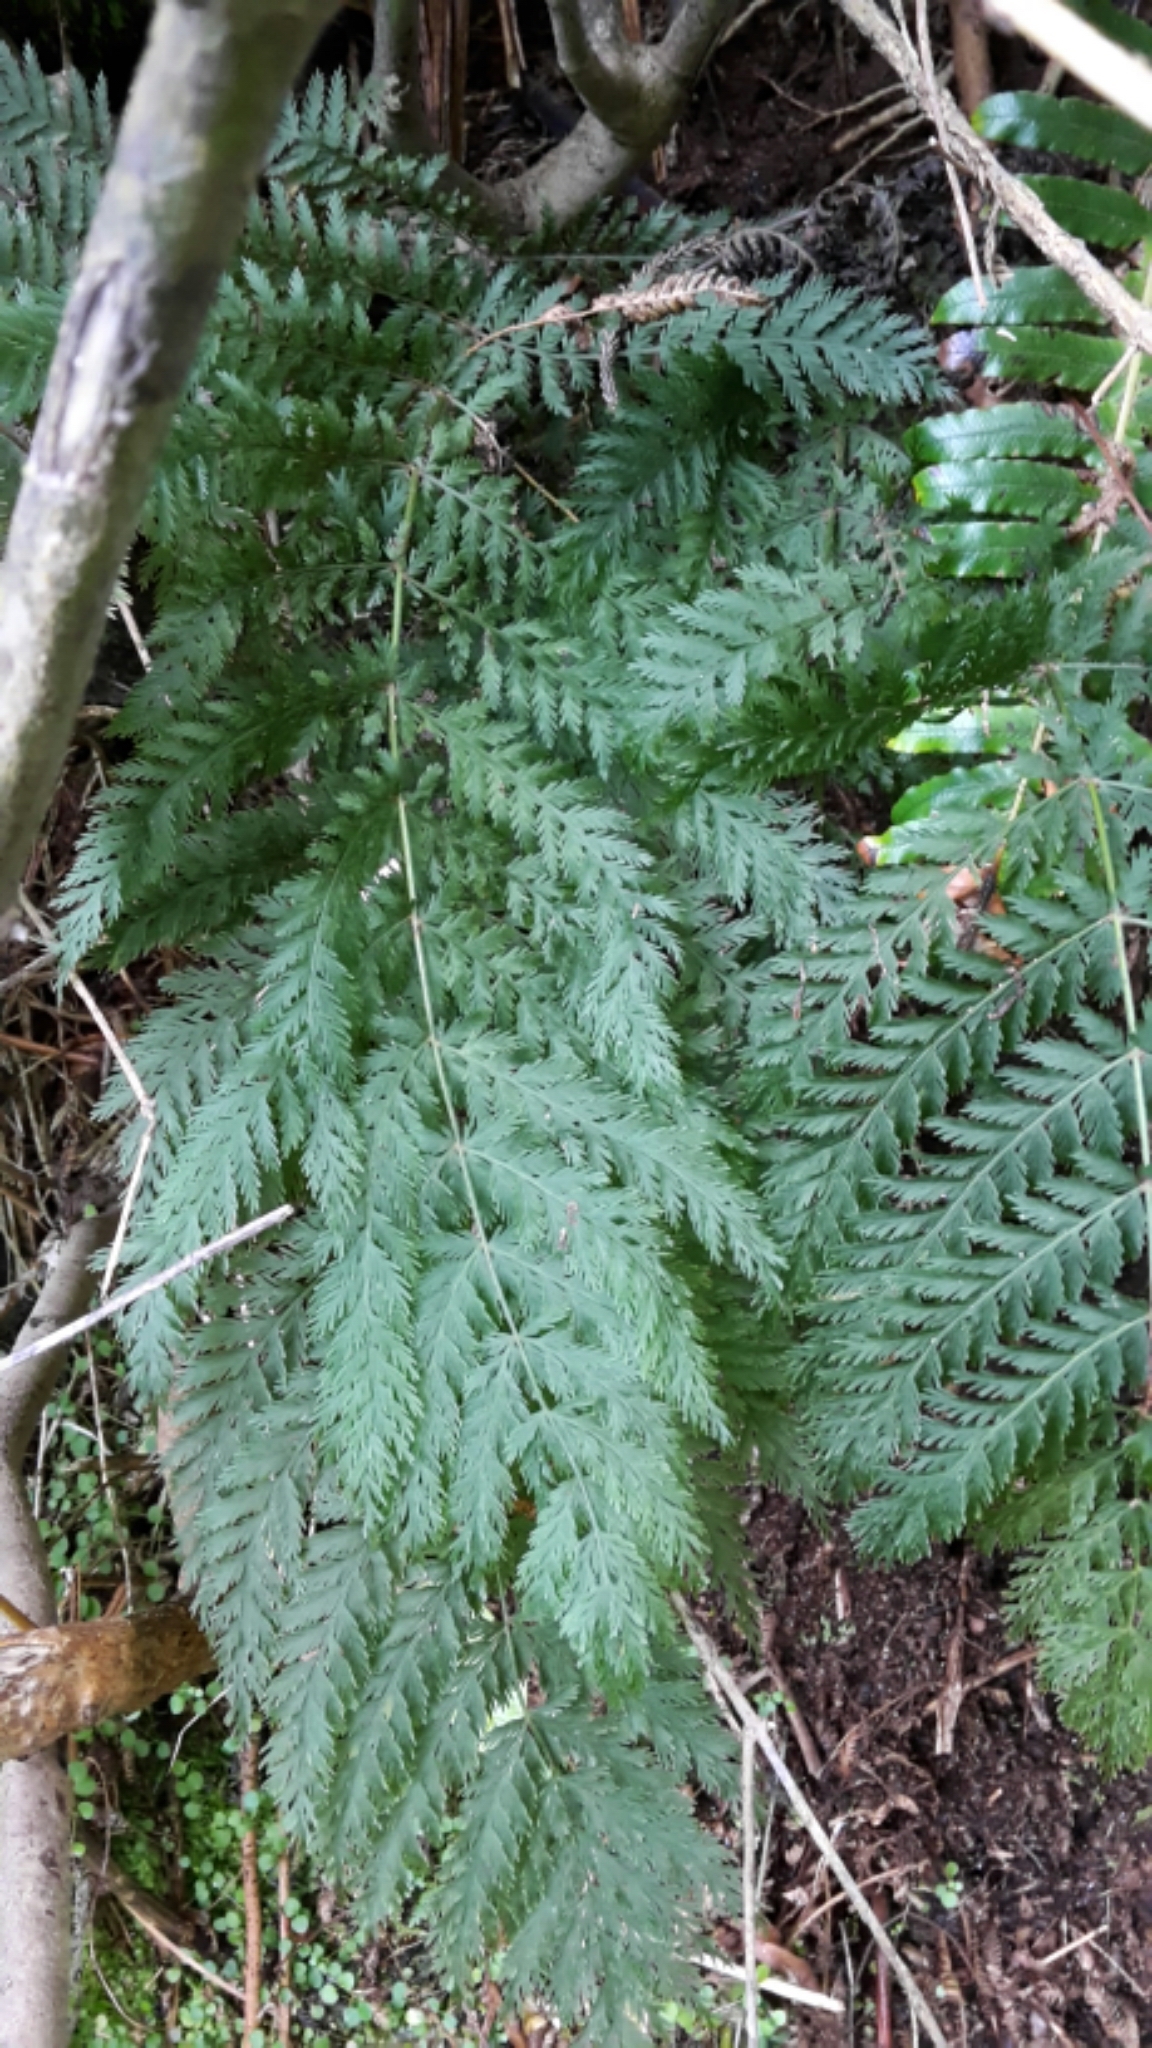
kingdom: Plantae
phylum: Tracheophyta
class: Polypodiopsida
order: Osmundales
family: Osmundaceae
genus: Leptopteris
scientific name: Leptopteris hymenophylloides
